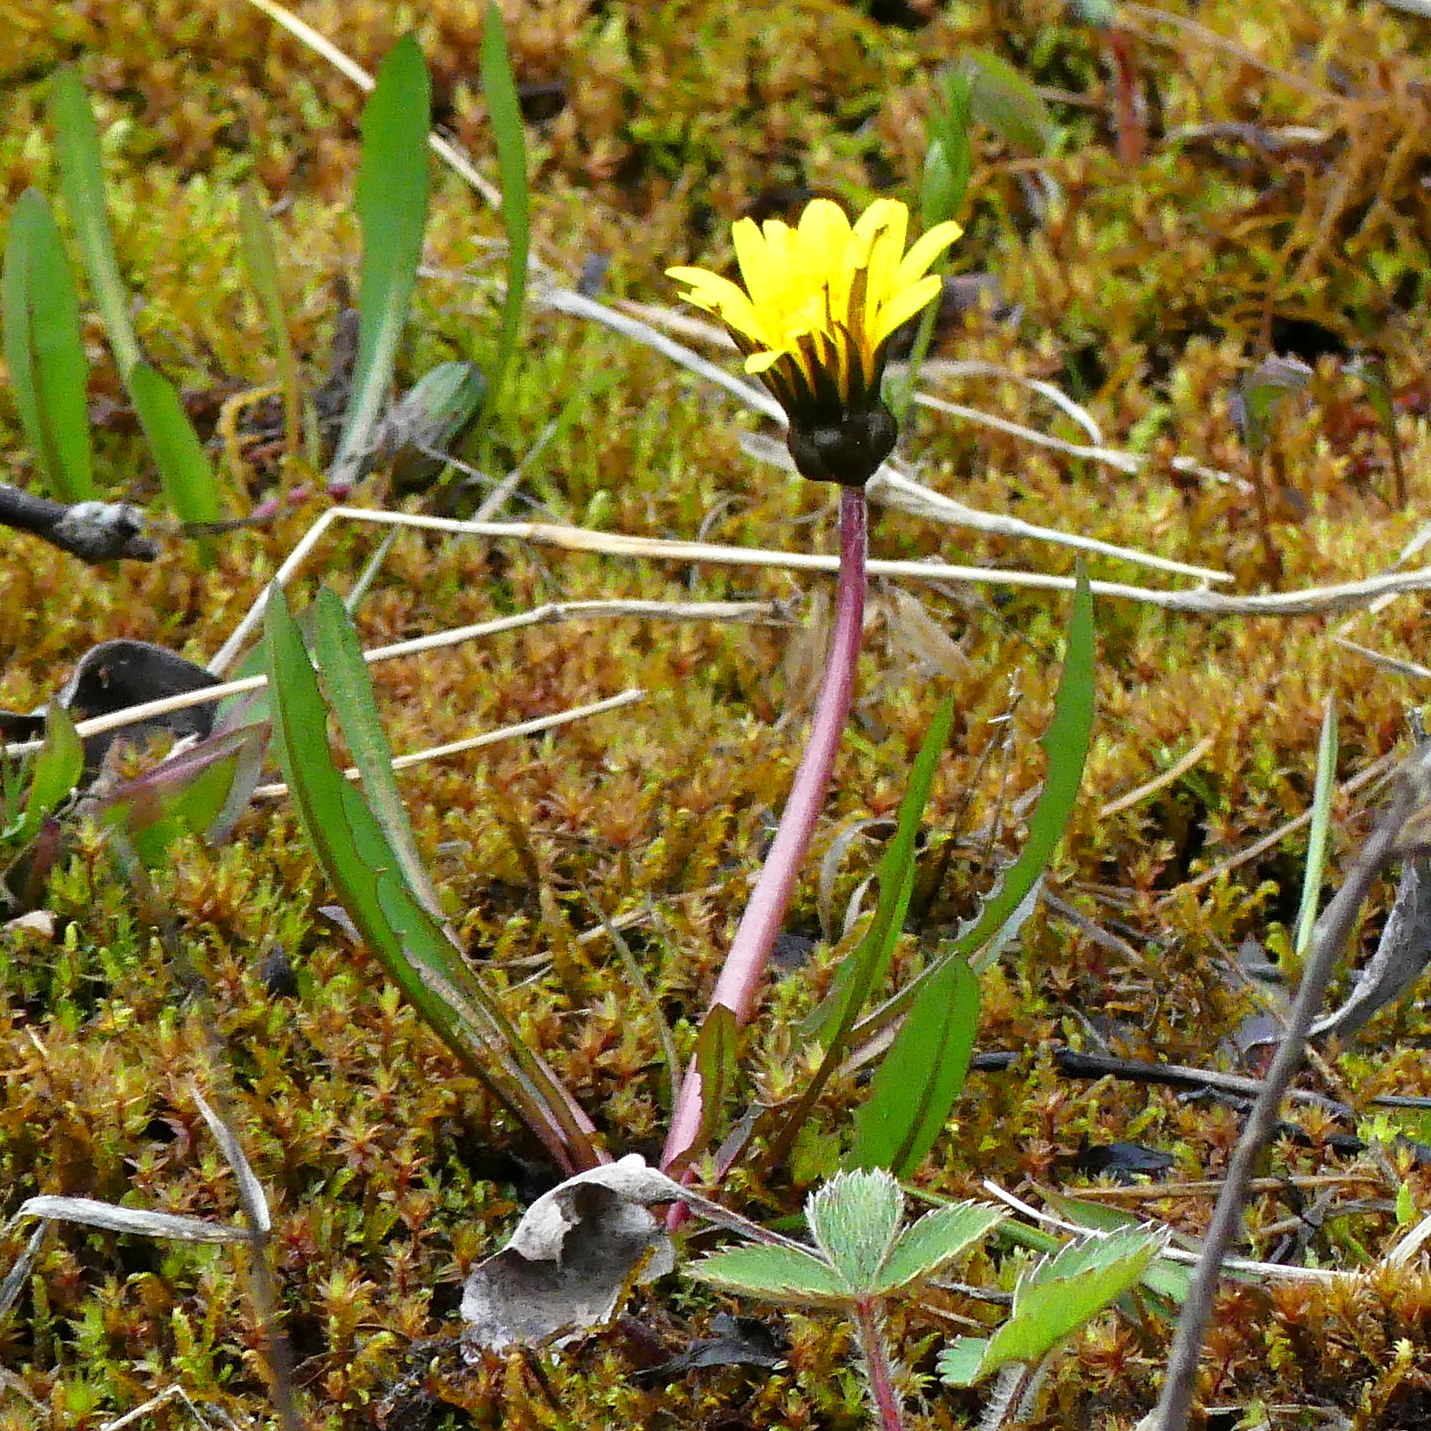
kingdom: Plantae
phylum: Tracheophyta
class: Magnoliopsida
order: Asterales
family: Asteraceae
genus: Taraxacum
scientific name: Taraxacum officinale
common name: Common dandelion
